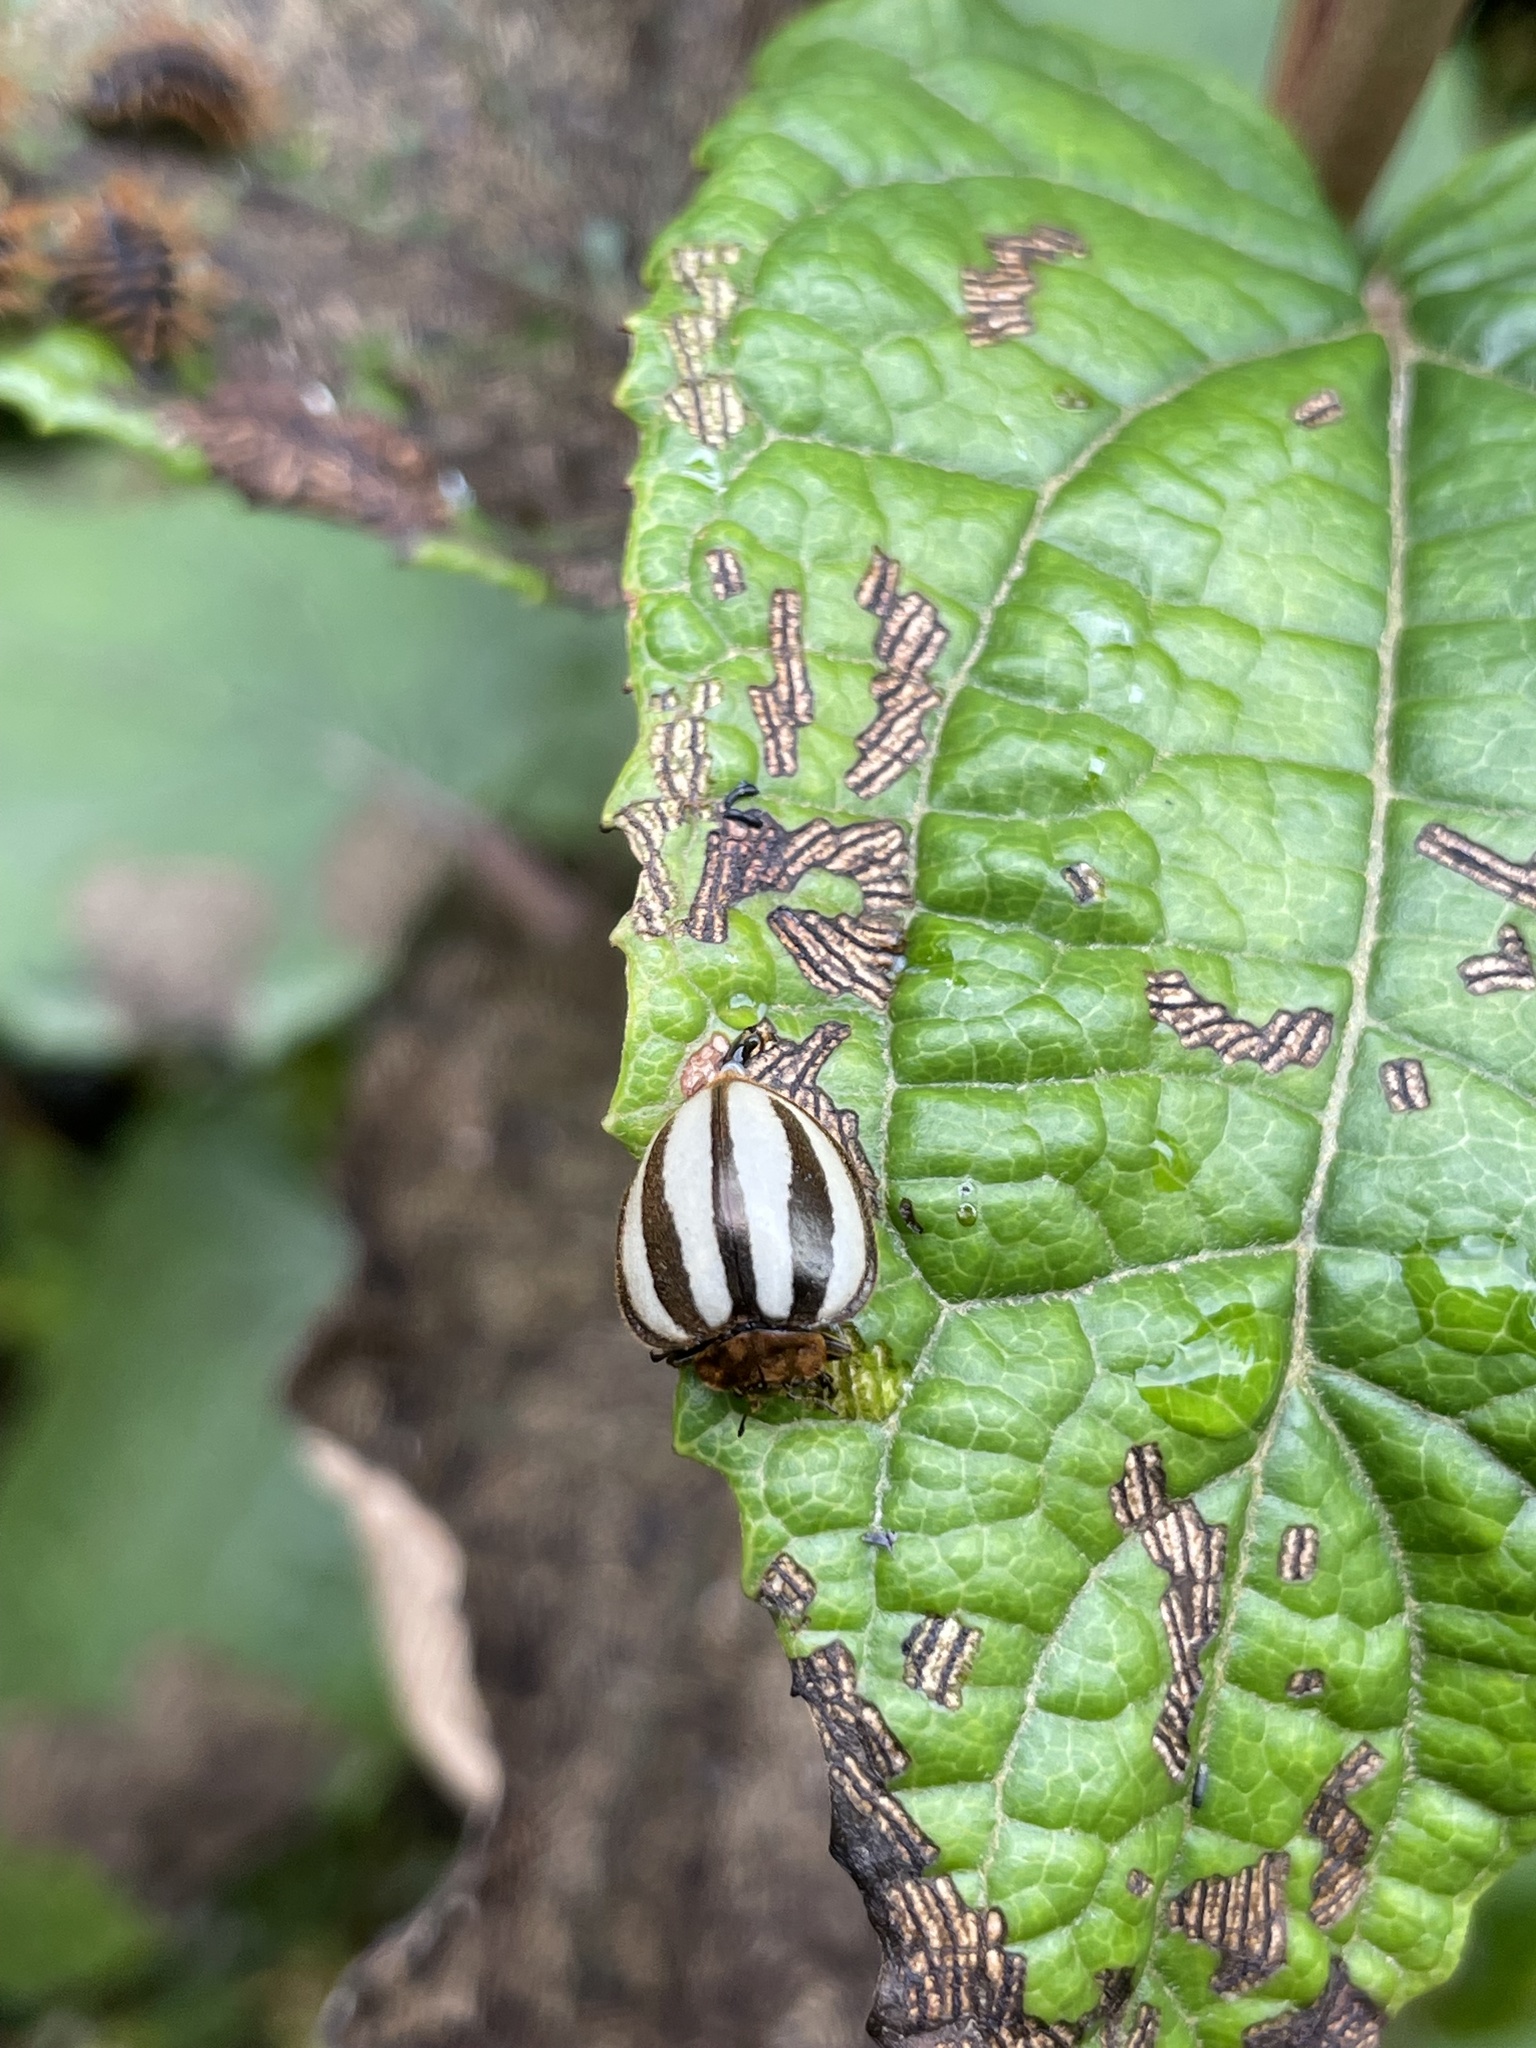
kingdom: Animalia
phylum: Arthropoda
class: Insecta
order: Coleoptera
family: Coccinellidae
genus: Epilachna
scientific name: Epilachna ecuadorica
